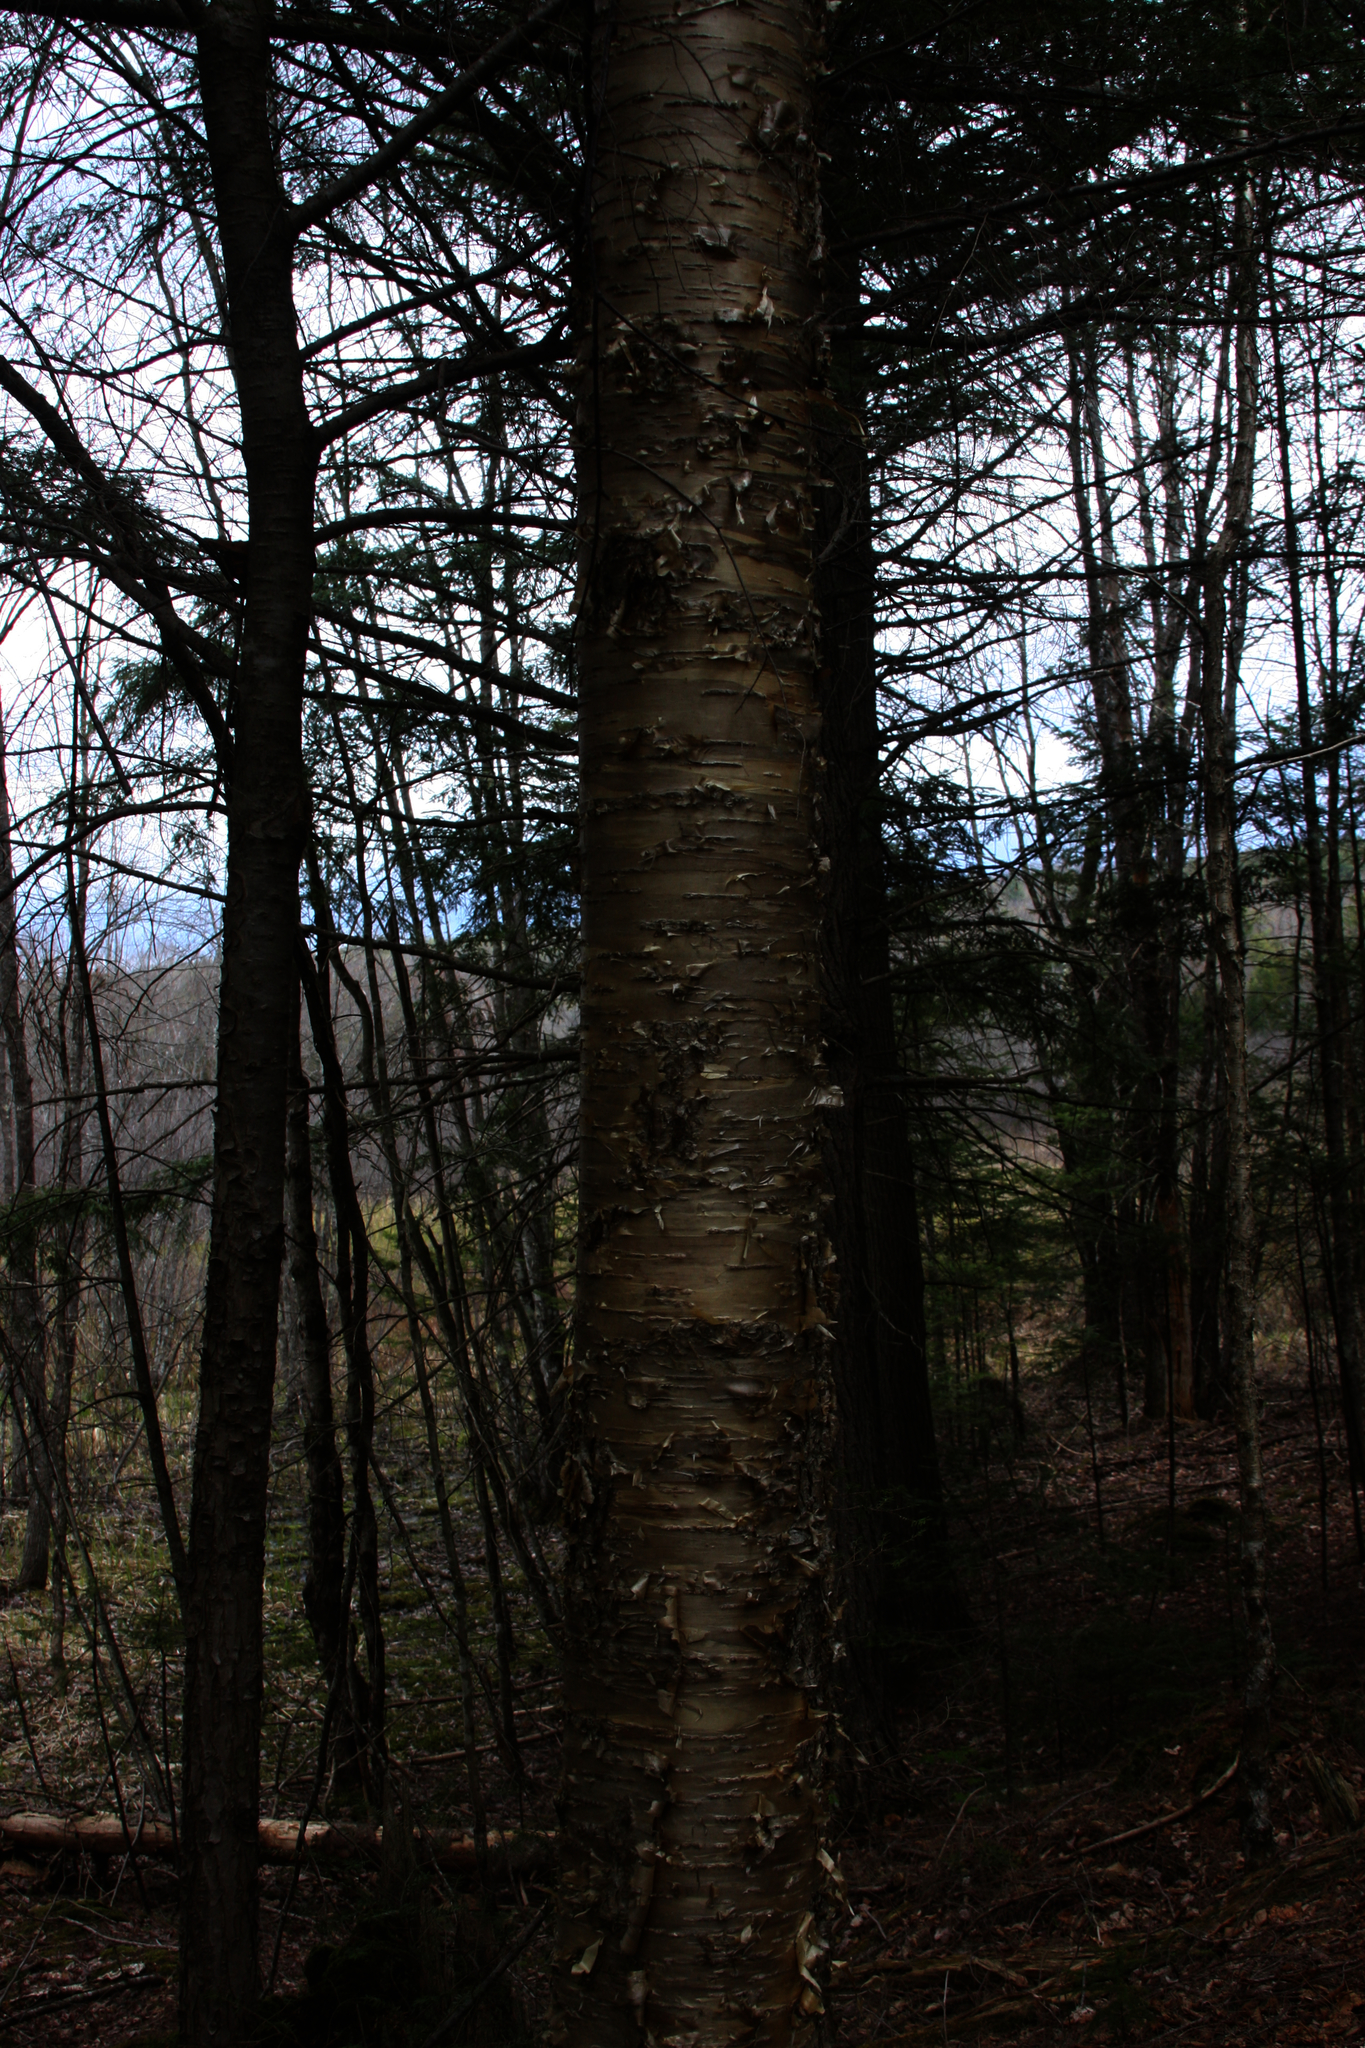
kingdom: Plantae
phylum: Tracheophyta
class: Magnoliopsida
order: Fagales
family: Betulaceae
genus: Betula
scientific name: Betula alleghaniensis
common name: Yellow birch
